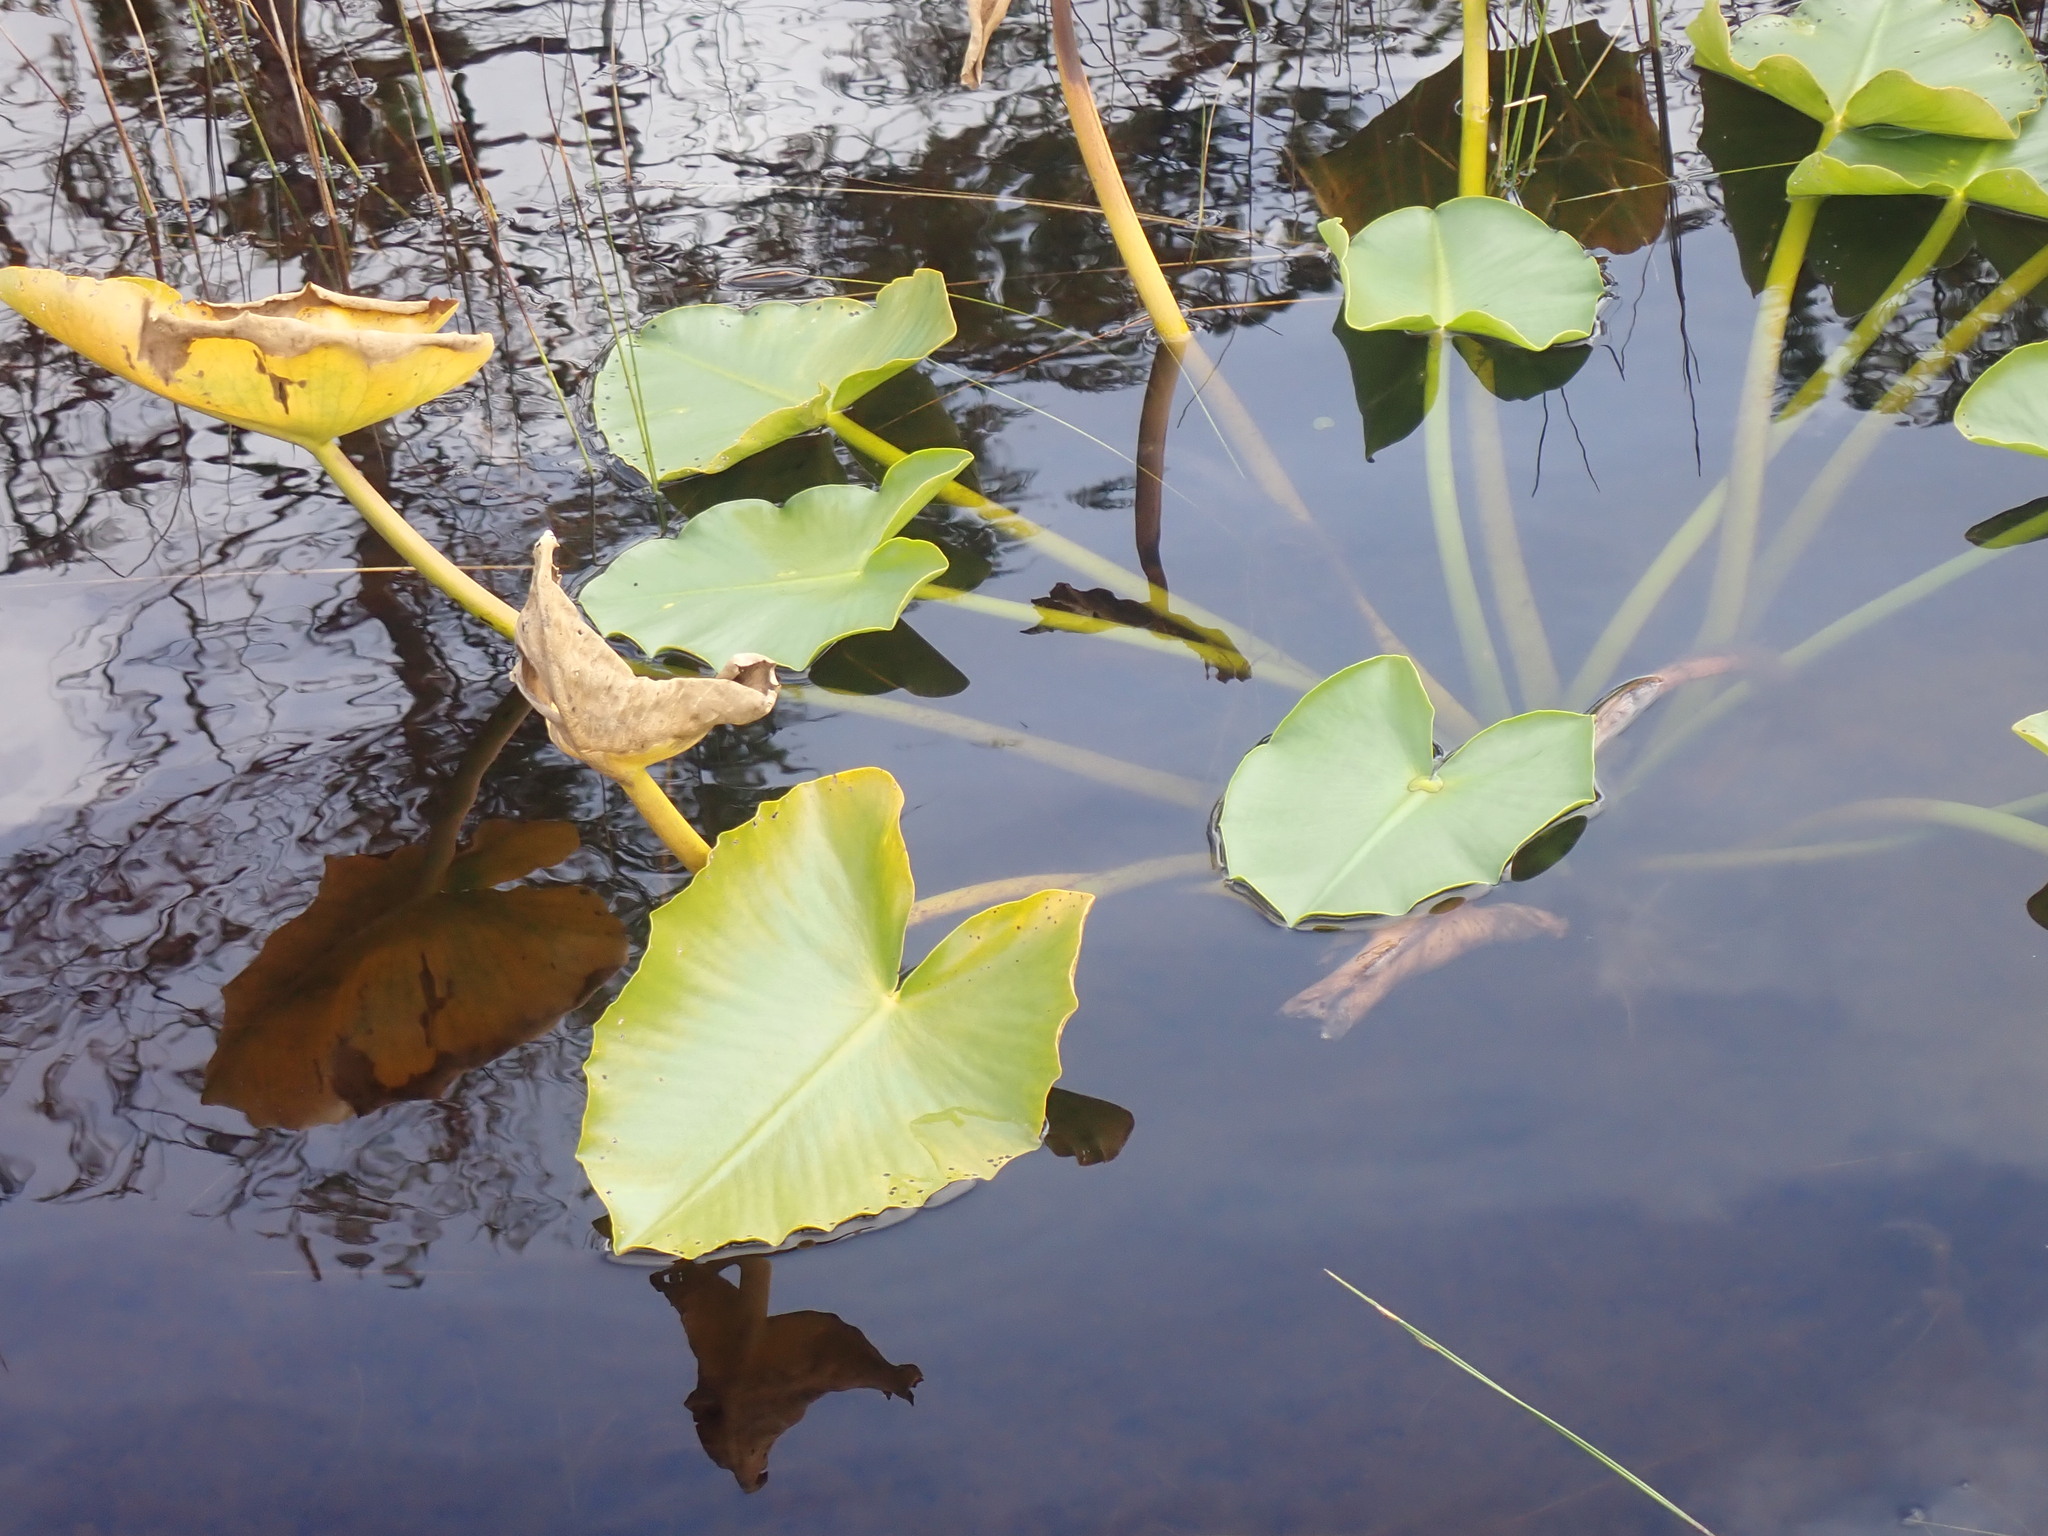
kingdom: Plantae
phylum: Tracheophyta
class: Magnoliopsida
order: Nymphaeales
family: Nymphaeaceae
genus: Nuphar
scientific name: Nuphar polysepala
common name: Rocky mountain cow-lily
